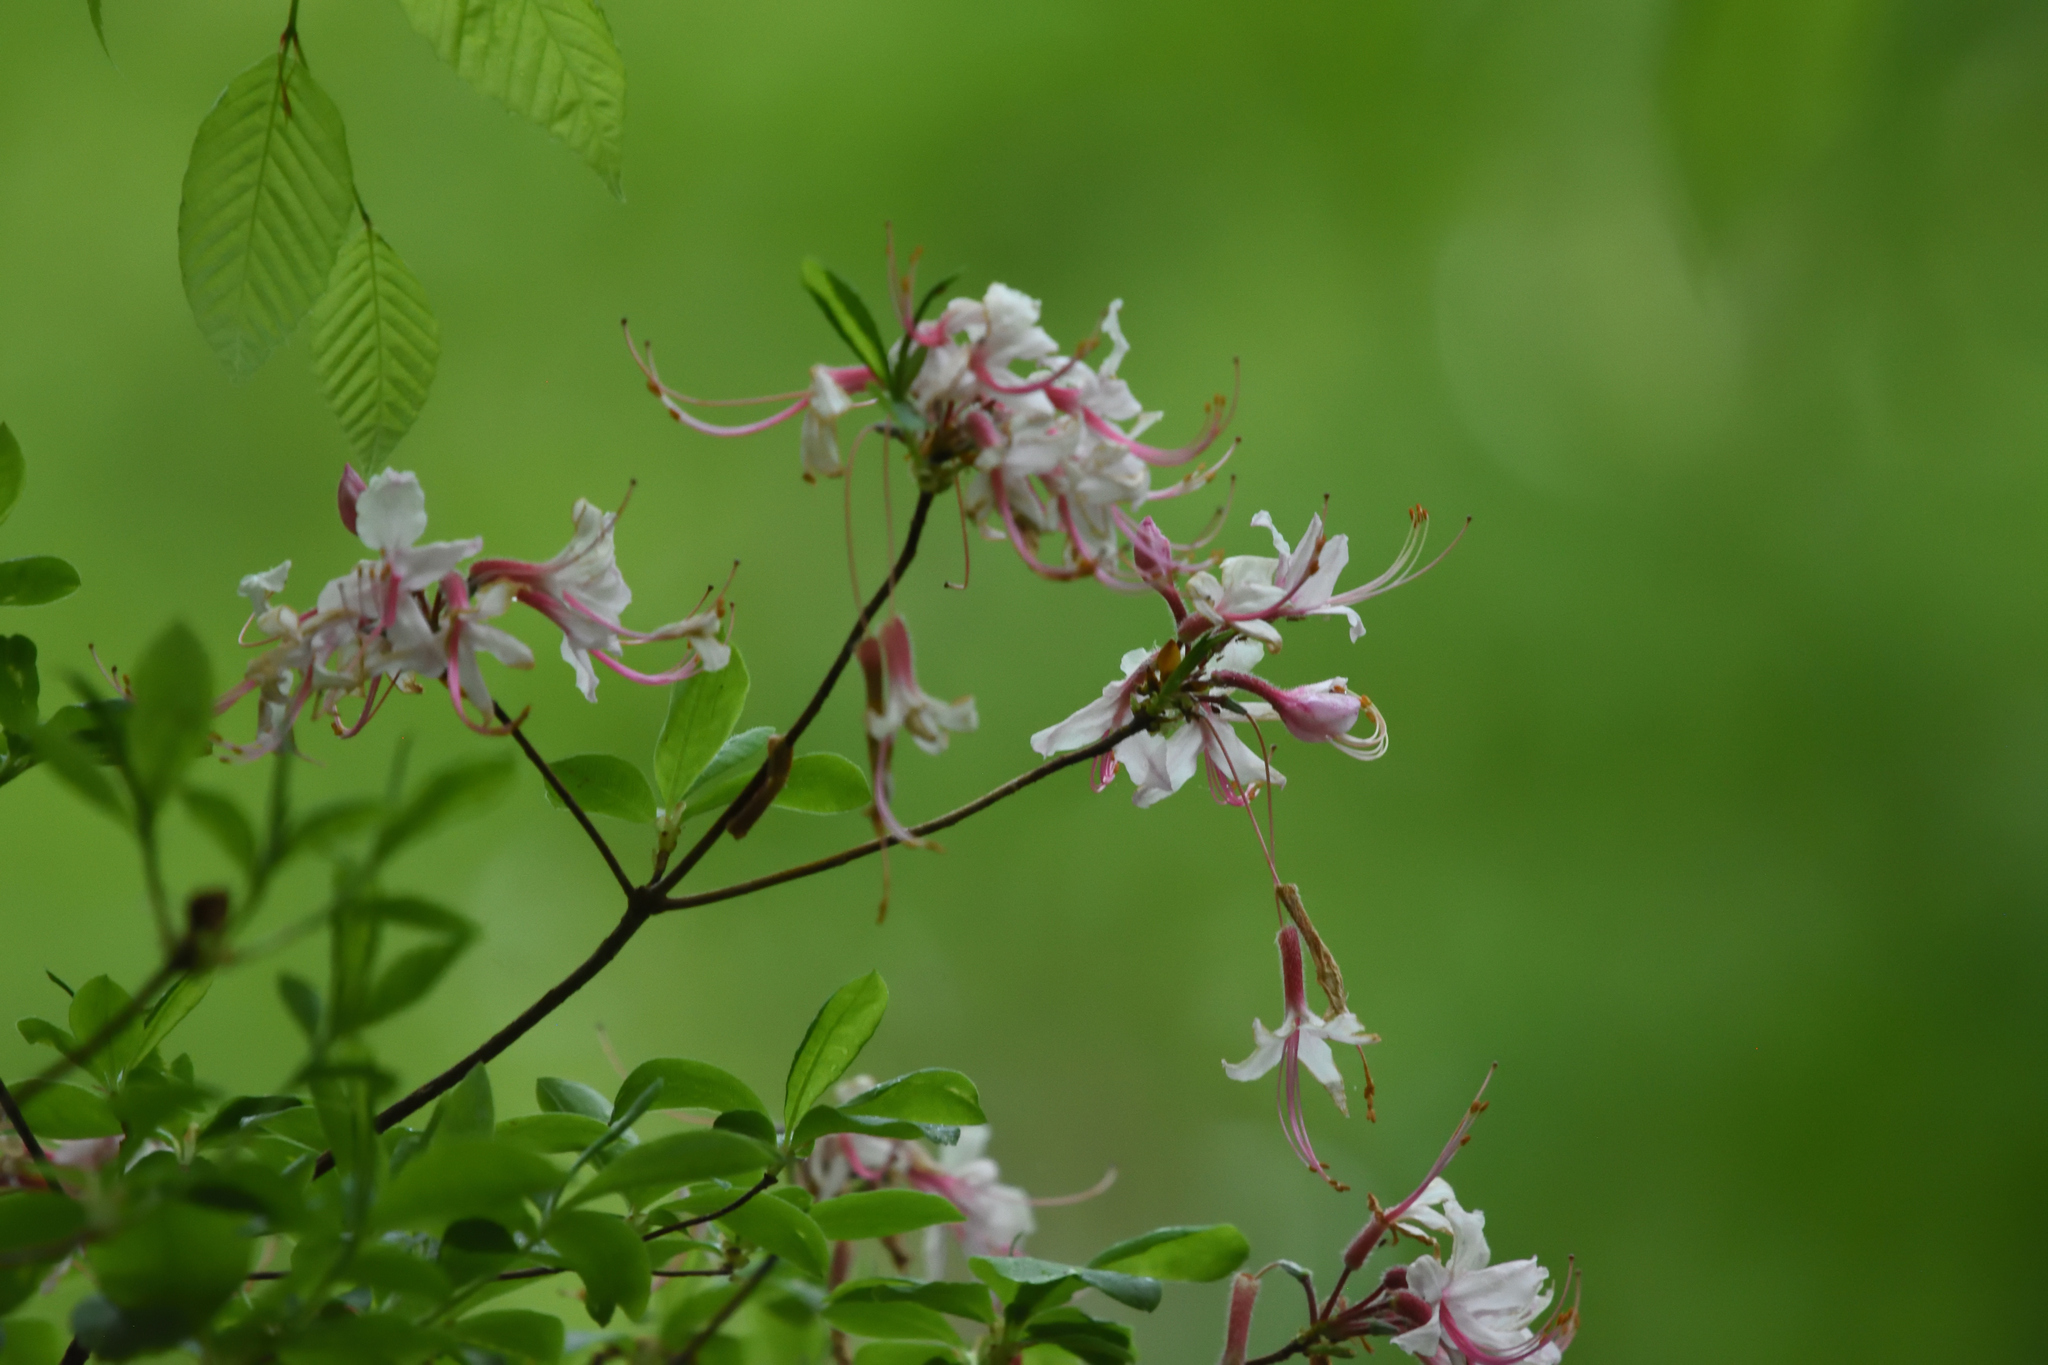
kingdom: Plantae
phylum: Tracheophyta
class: Magnoliopsida
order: Ericales
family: Ericaceae
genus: Rhododendron
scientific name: Rhododendron periclymenoides
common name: Election-pink
